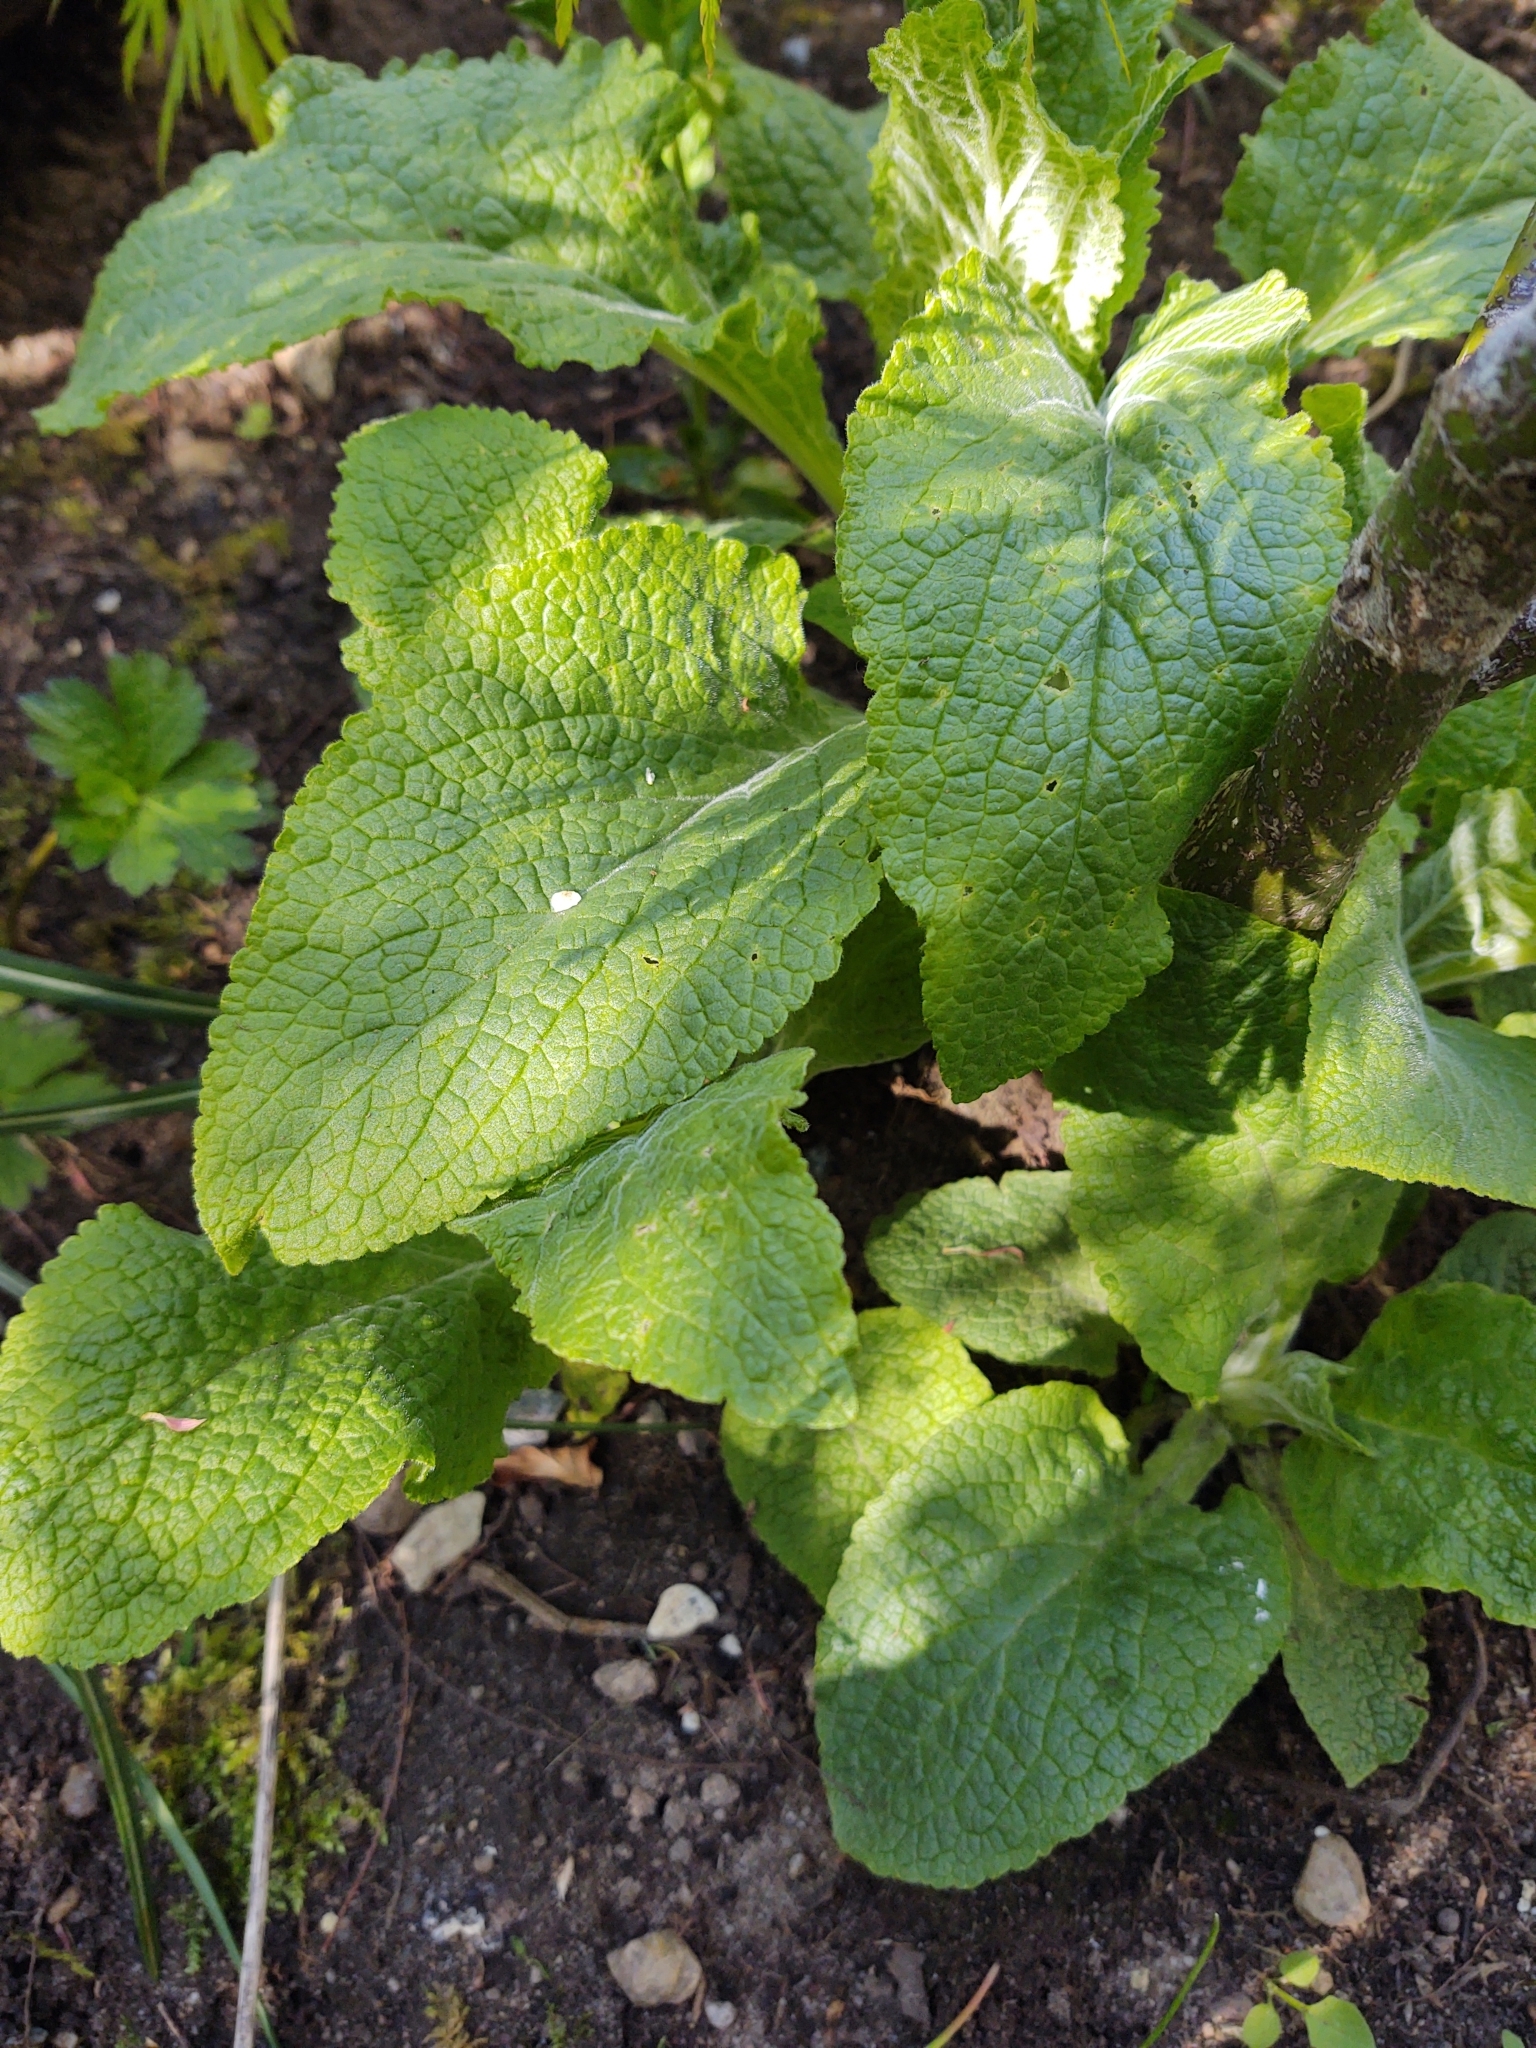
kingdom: Plantae
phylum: Tracheophyta
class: Magnoliopsida
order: Lamiales
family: Plantaginaceae
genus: Digitalis
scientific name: Digitalis purpurea
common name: Foxglove
